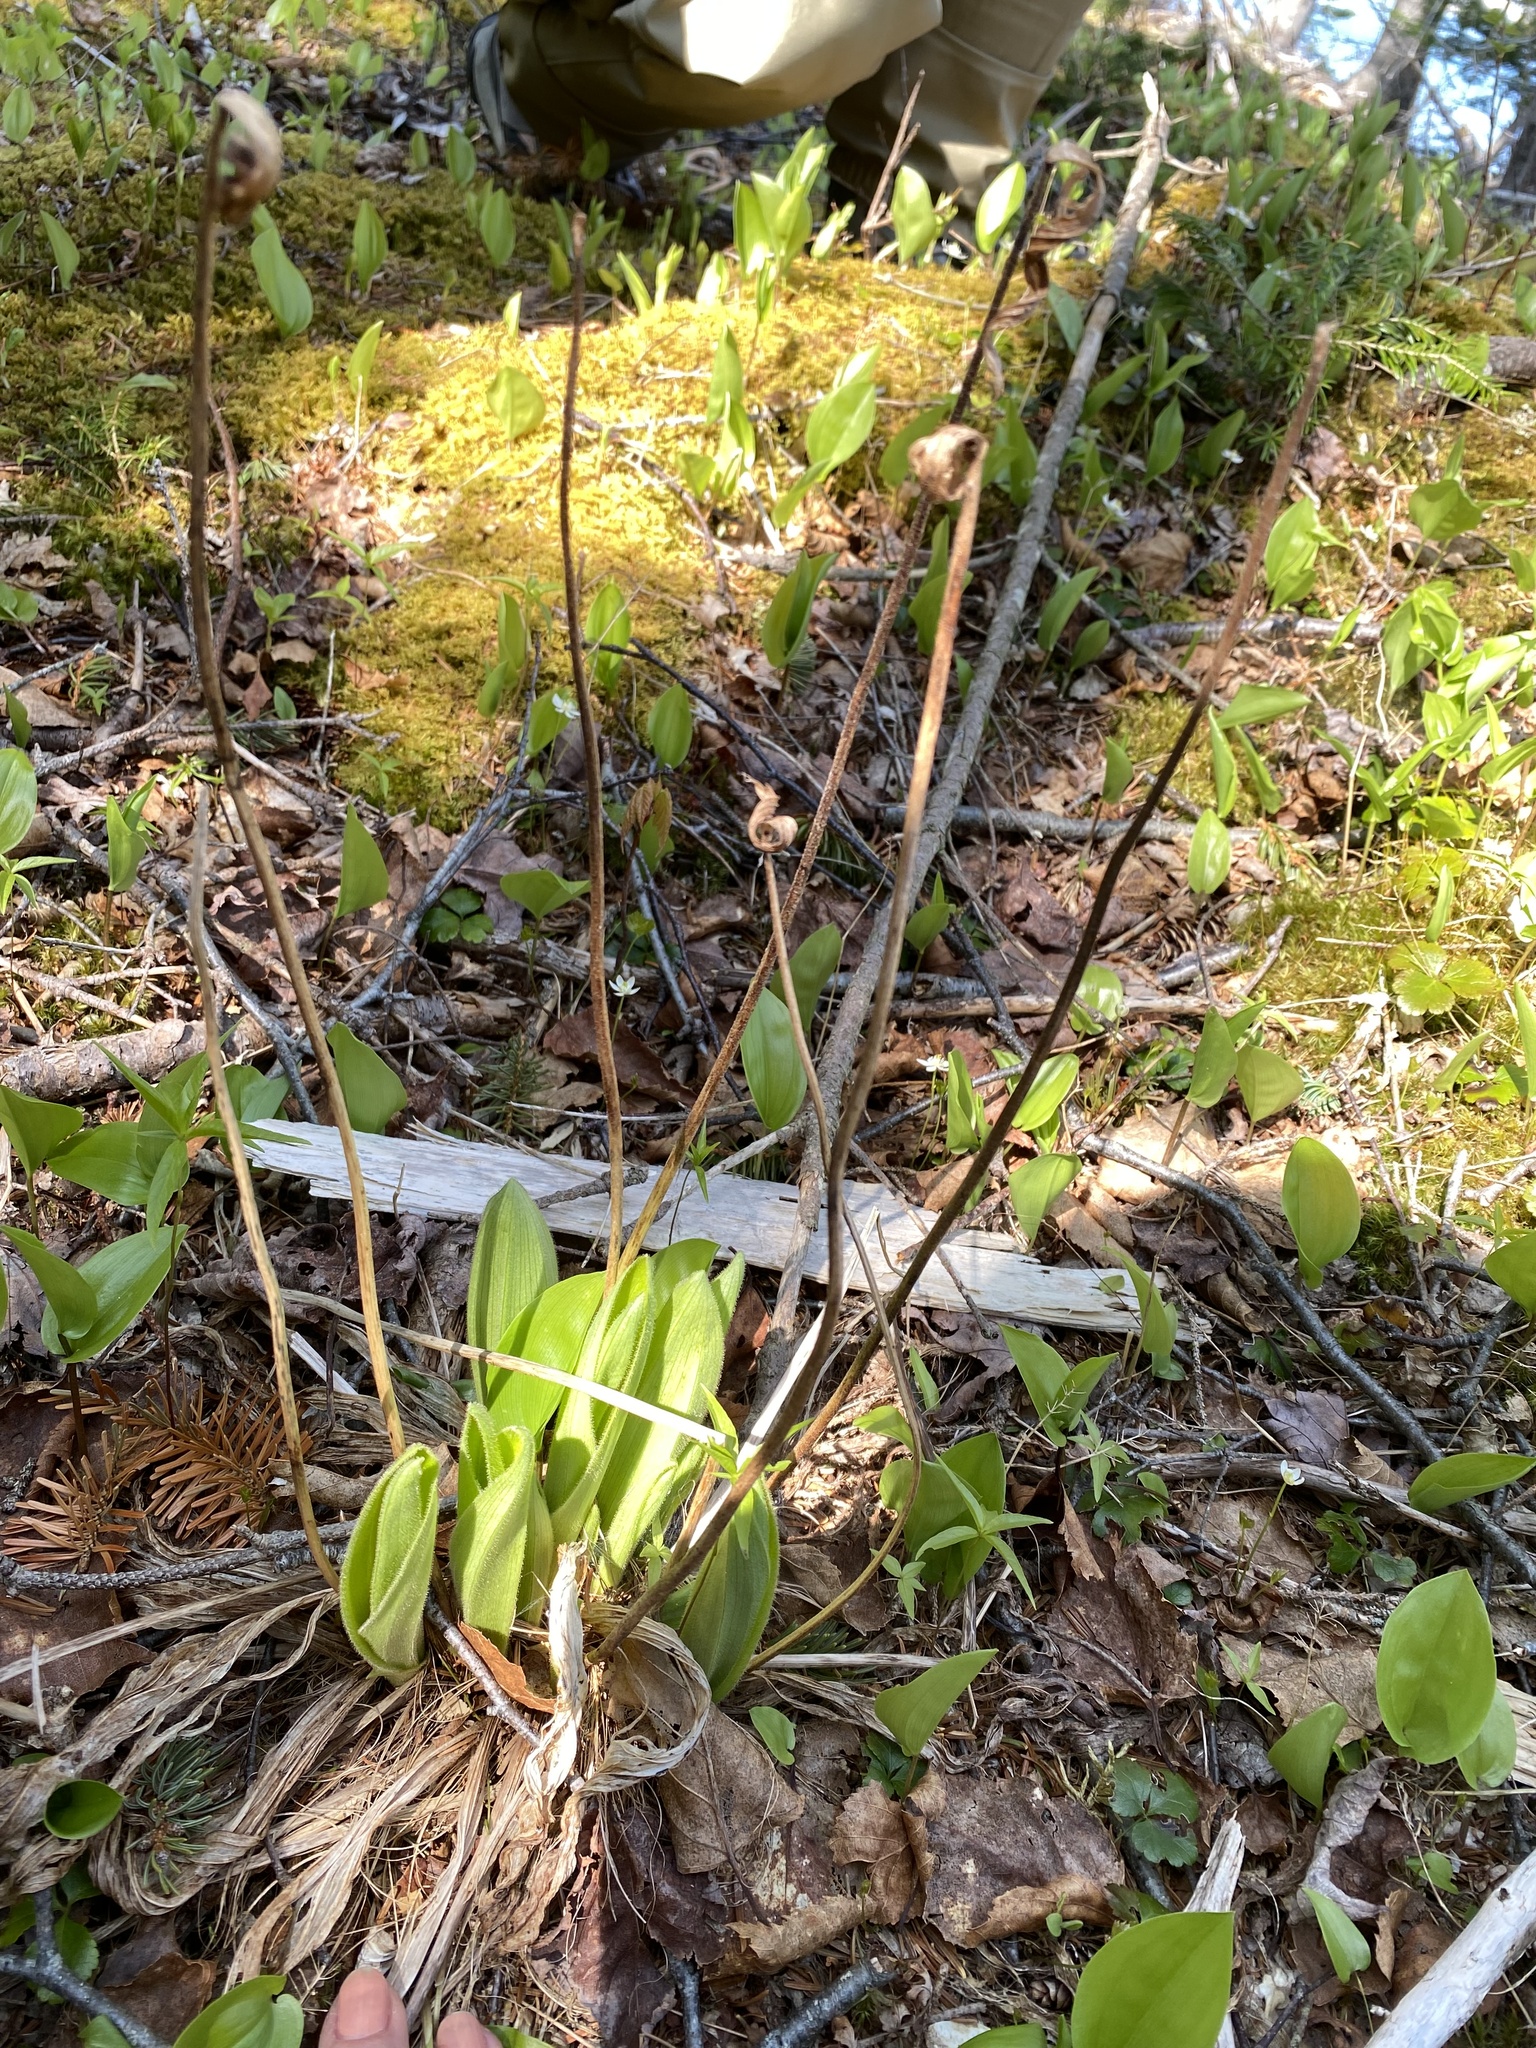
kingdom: Plantae
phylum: Tracheophyta
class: Liliopsida
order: Asparagales
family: Orchidaceae
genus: Cypripedium
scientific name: Cypripedium acaule
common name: Pink lady's-slipper
